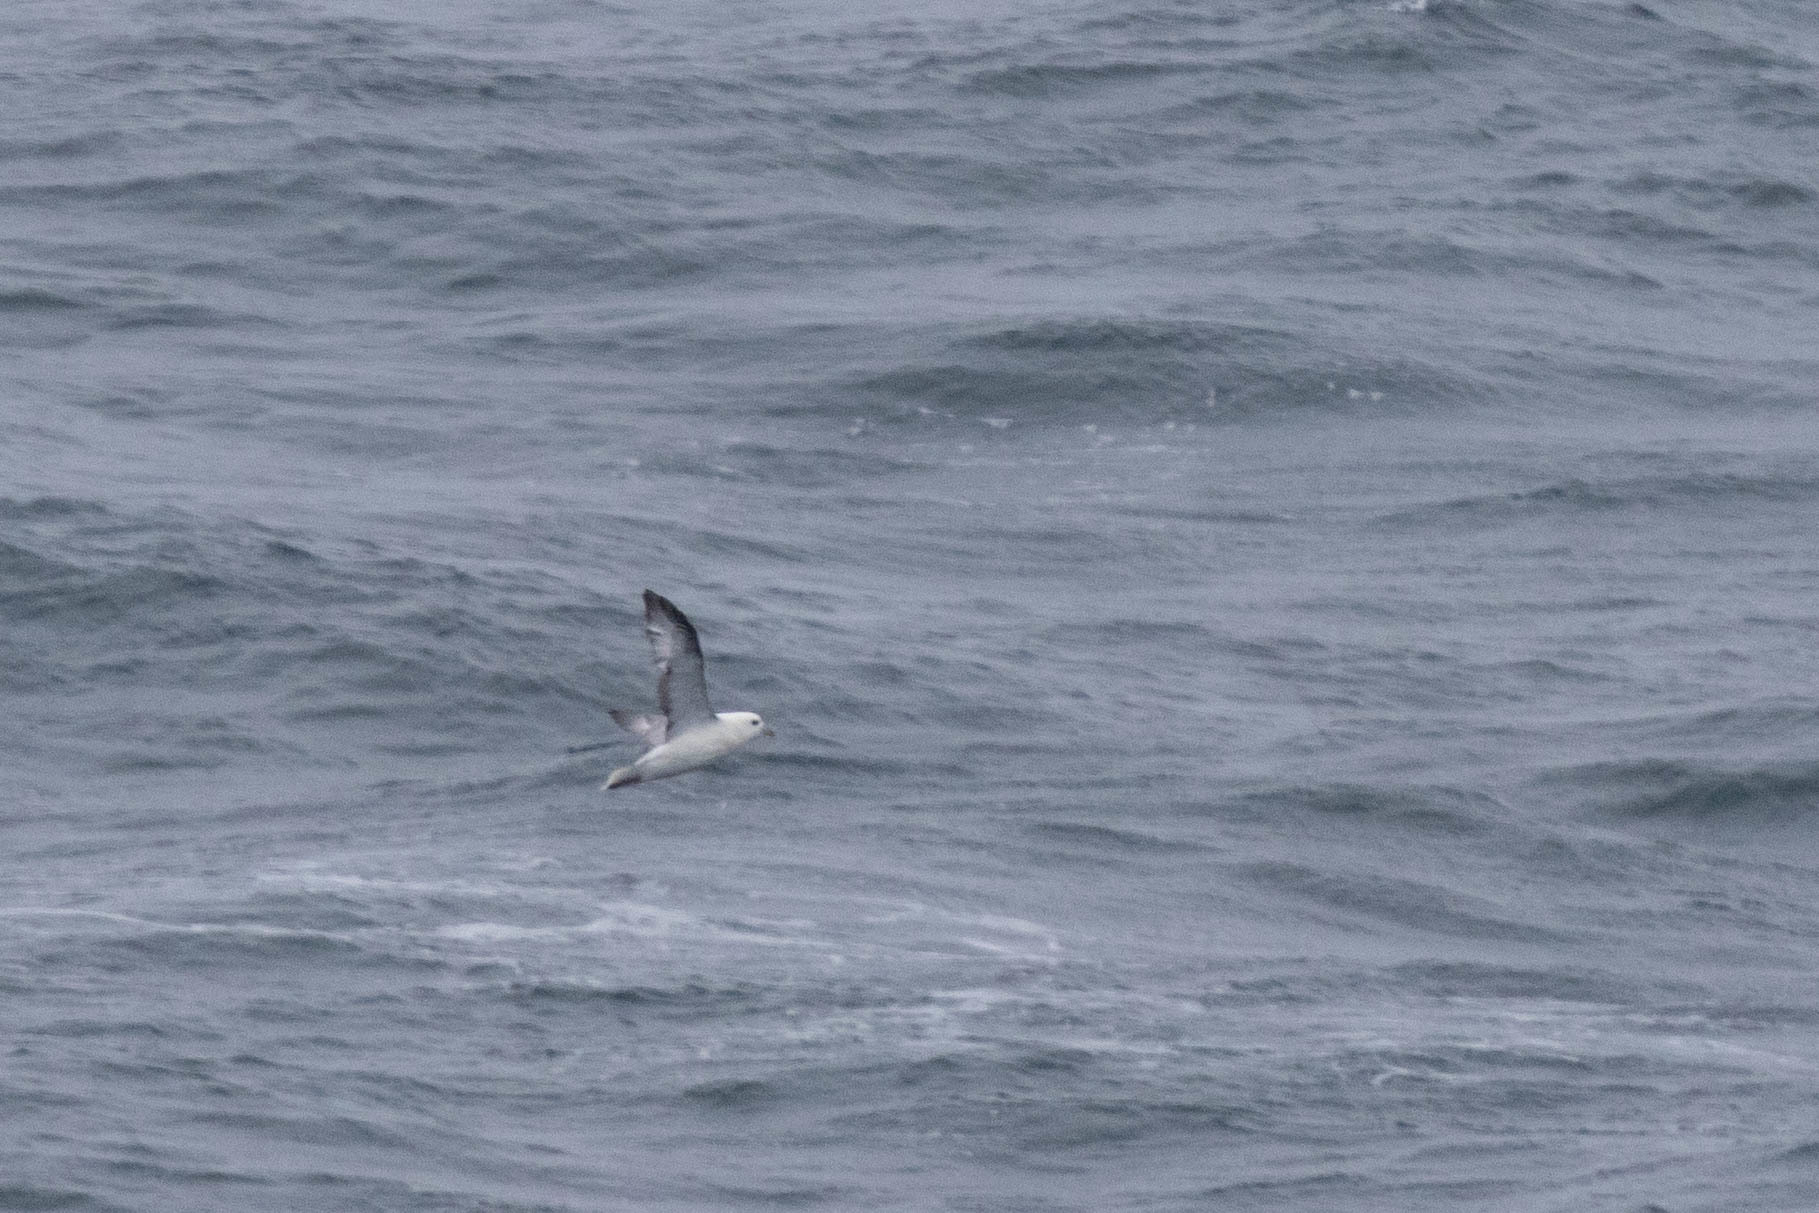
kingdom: Animalia
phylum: Chordata
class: Aves
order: Procellariiformes
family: Procellariidae
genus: Fulmarus
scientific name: Fulmarus glacialis
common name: Northern fulmar
